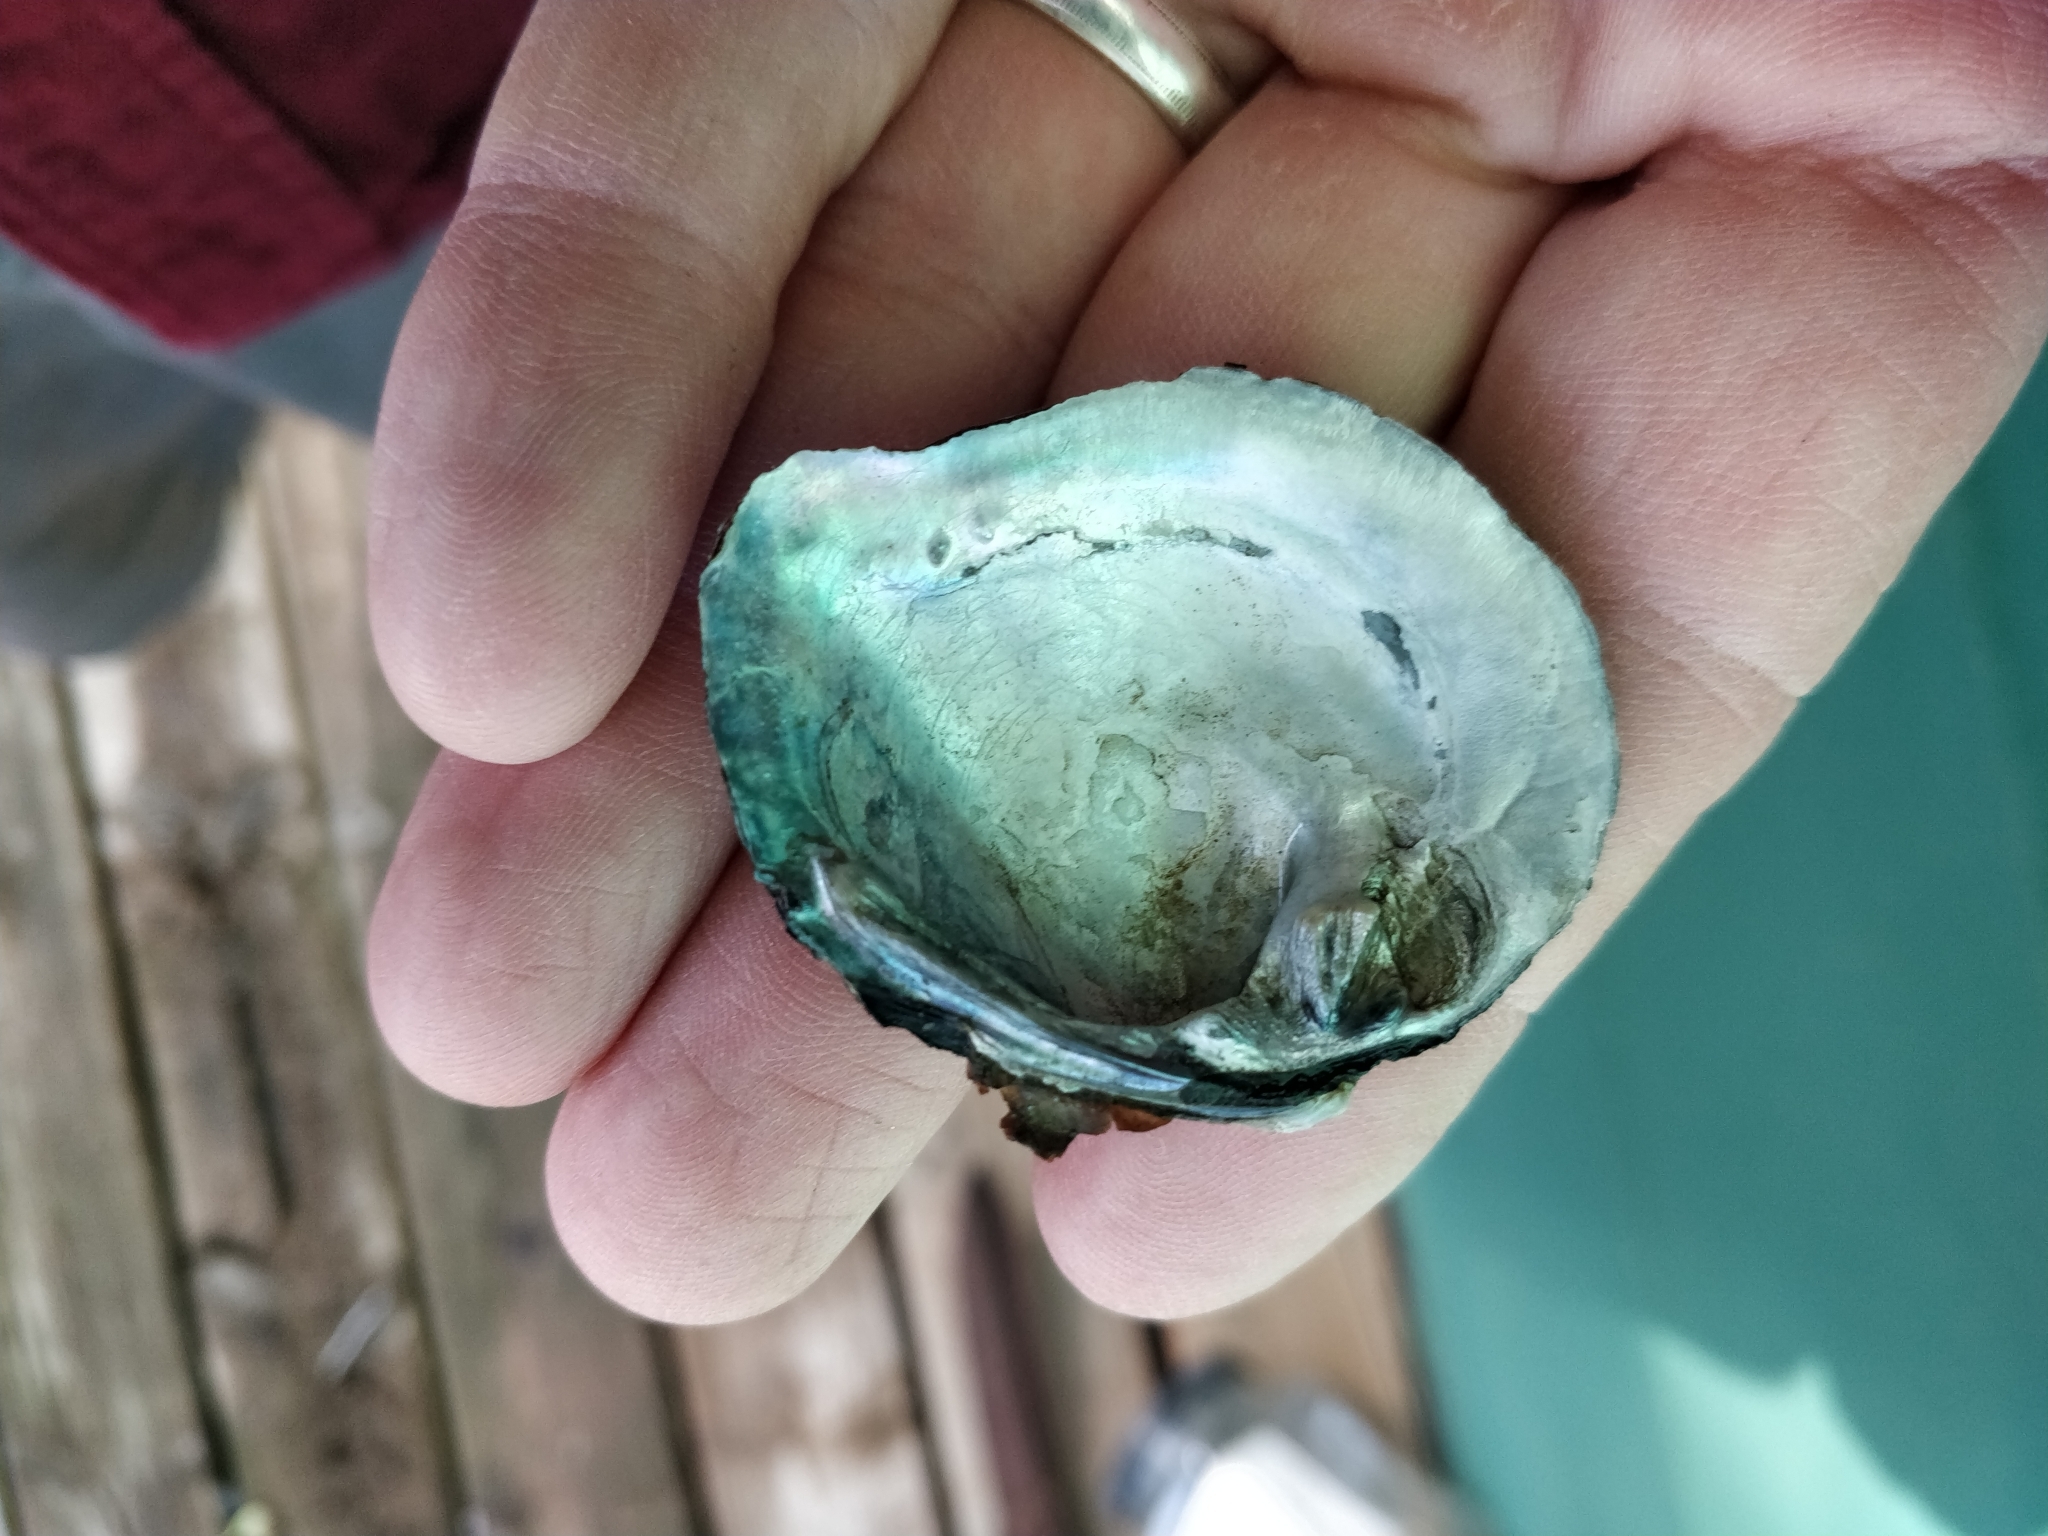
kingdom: Animalia
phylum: Mollusca
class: Bivalvia
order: Unionida
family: Unionidae
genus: Quadrula
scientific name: Quadrula quadrula
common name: Mapleleaf
